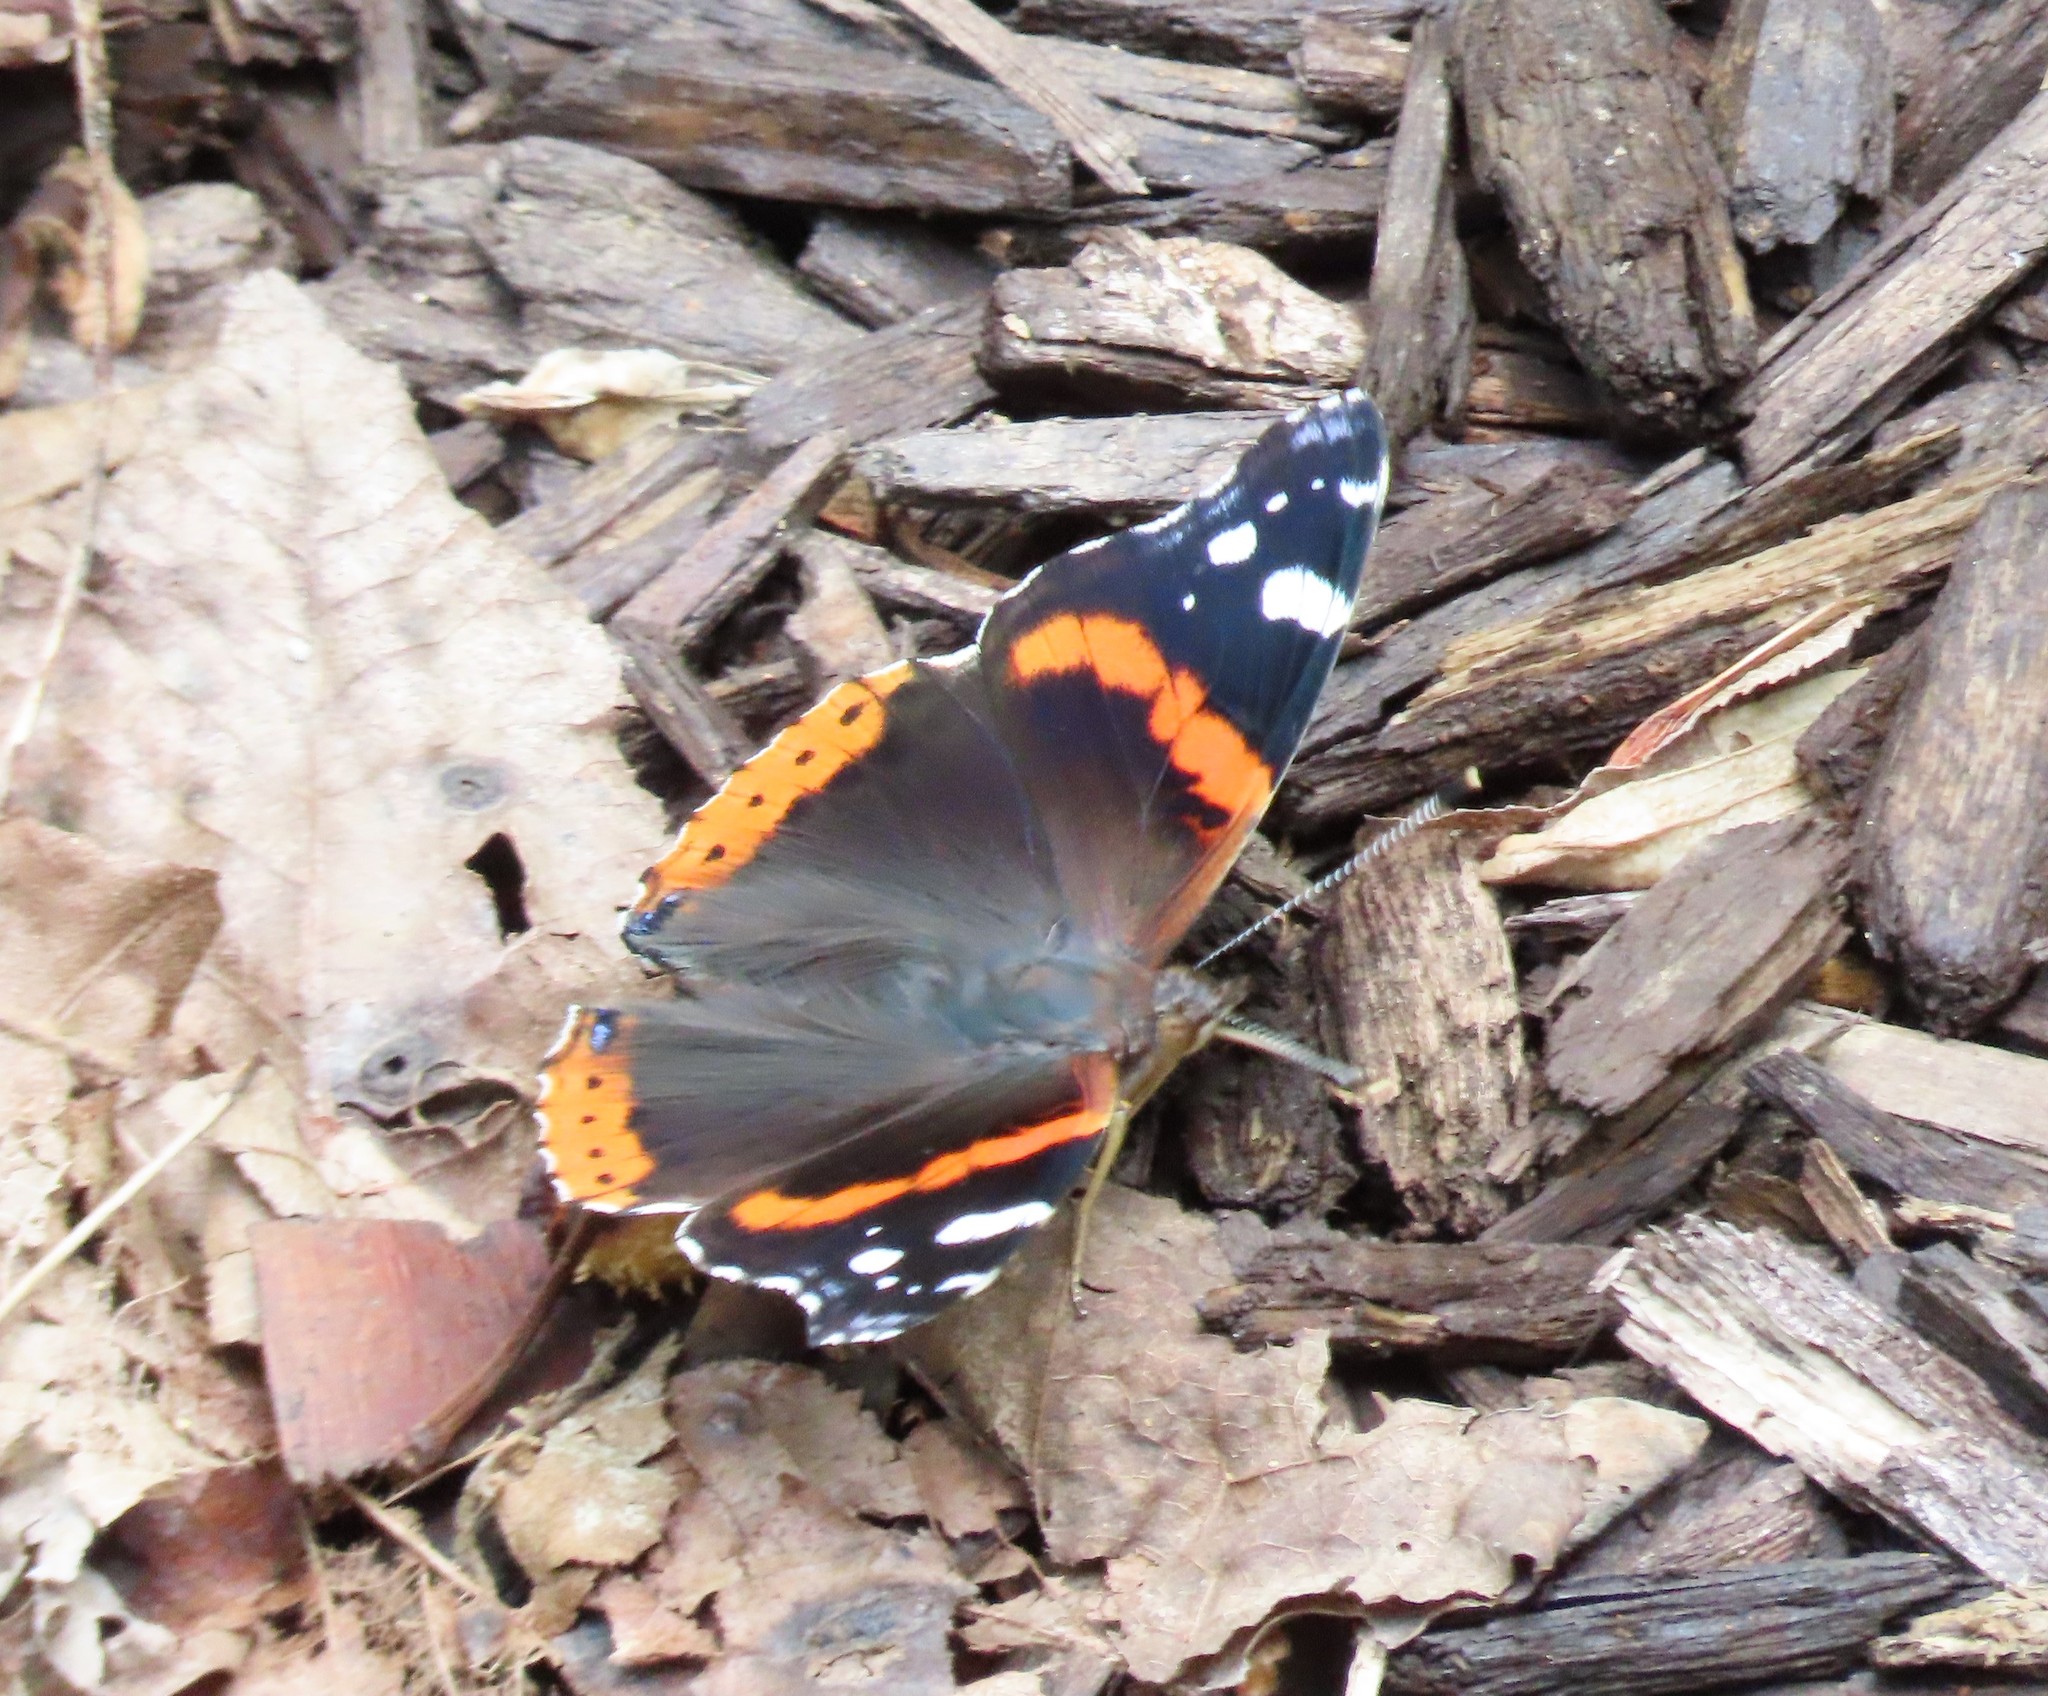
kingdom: Animalia
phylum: Arthropoda
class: Insecta
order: Lepidoptera
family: Nymphalidae
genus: Vanessa
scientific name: Vanessa atalanta
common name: Red admiral
